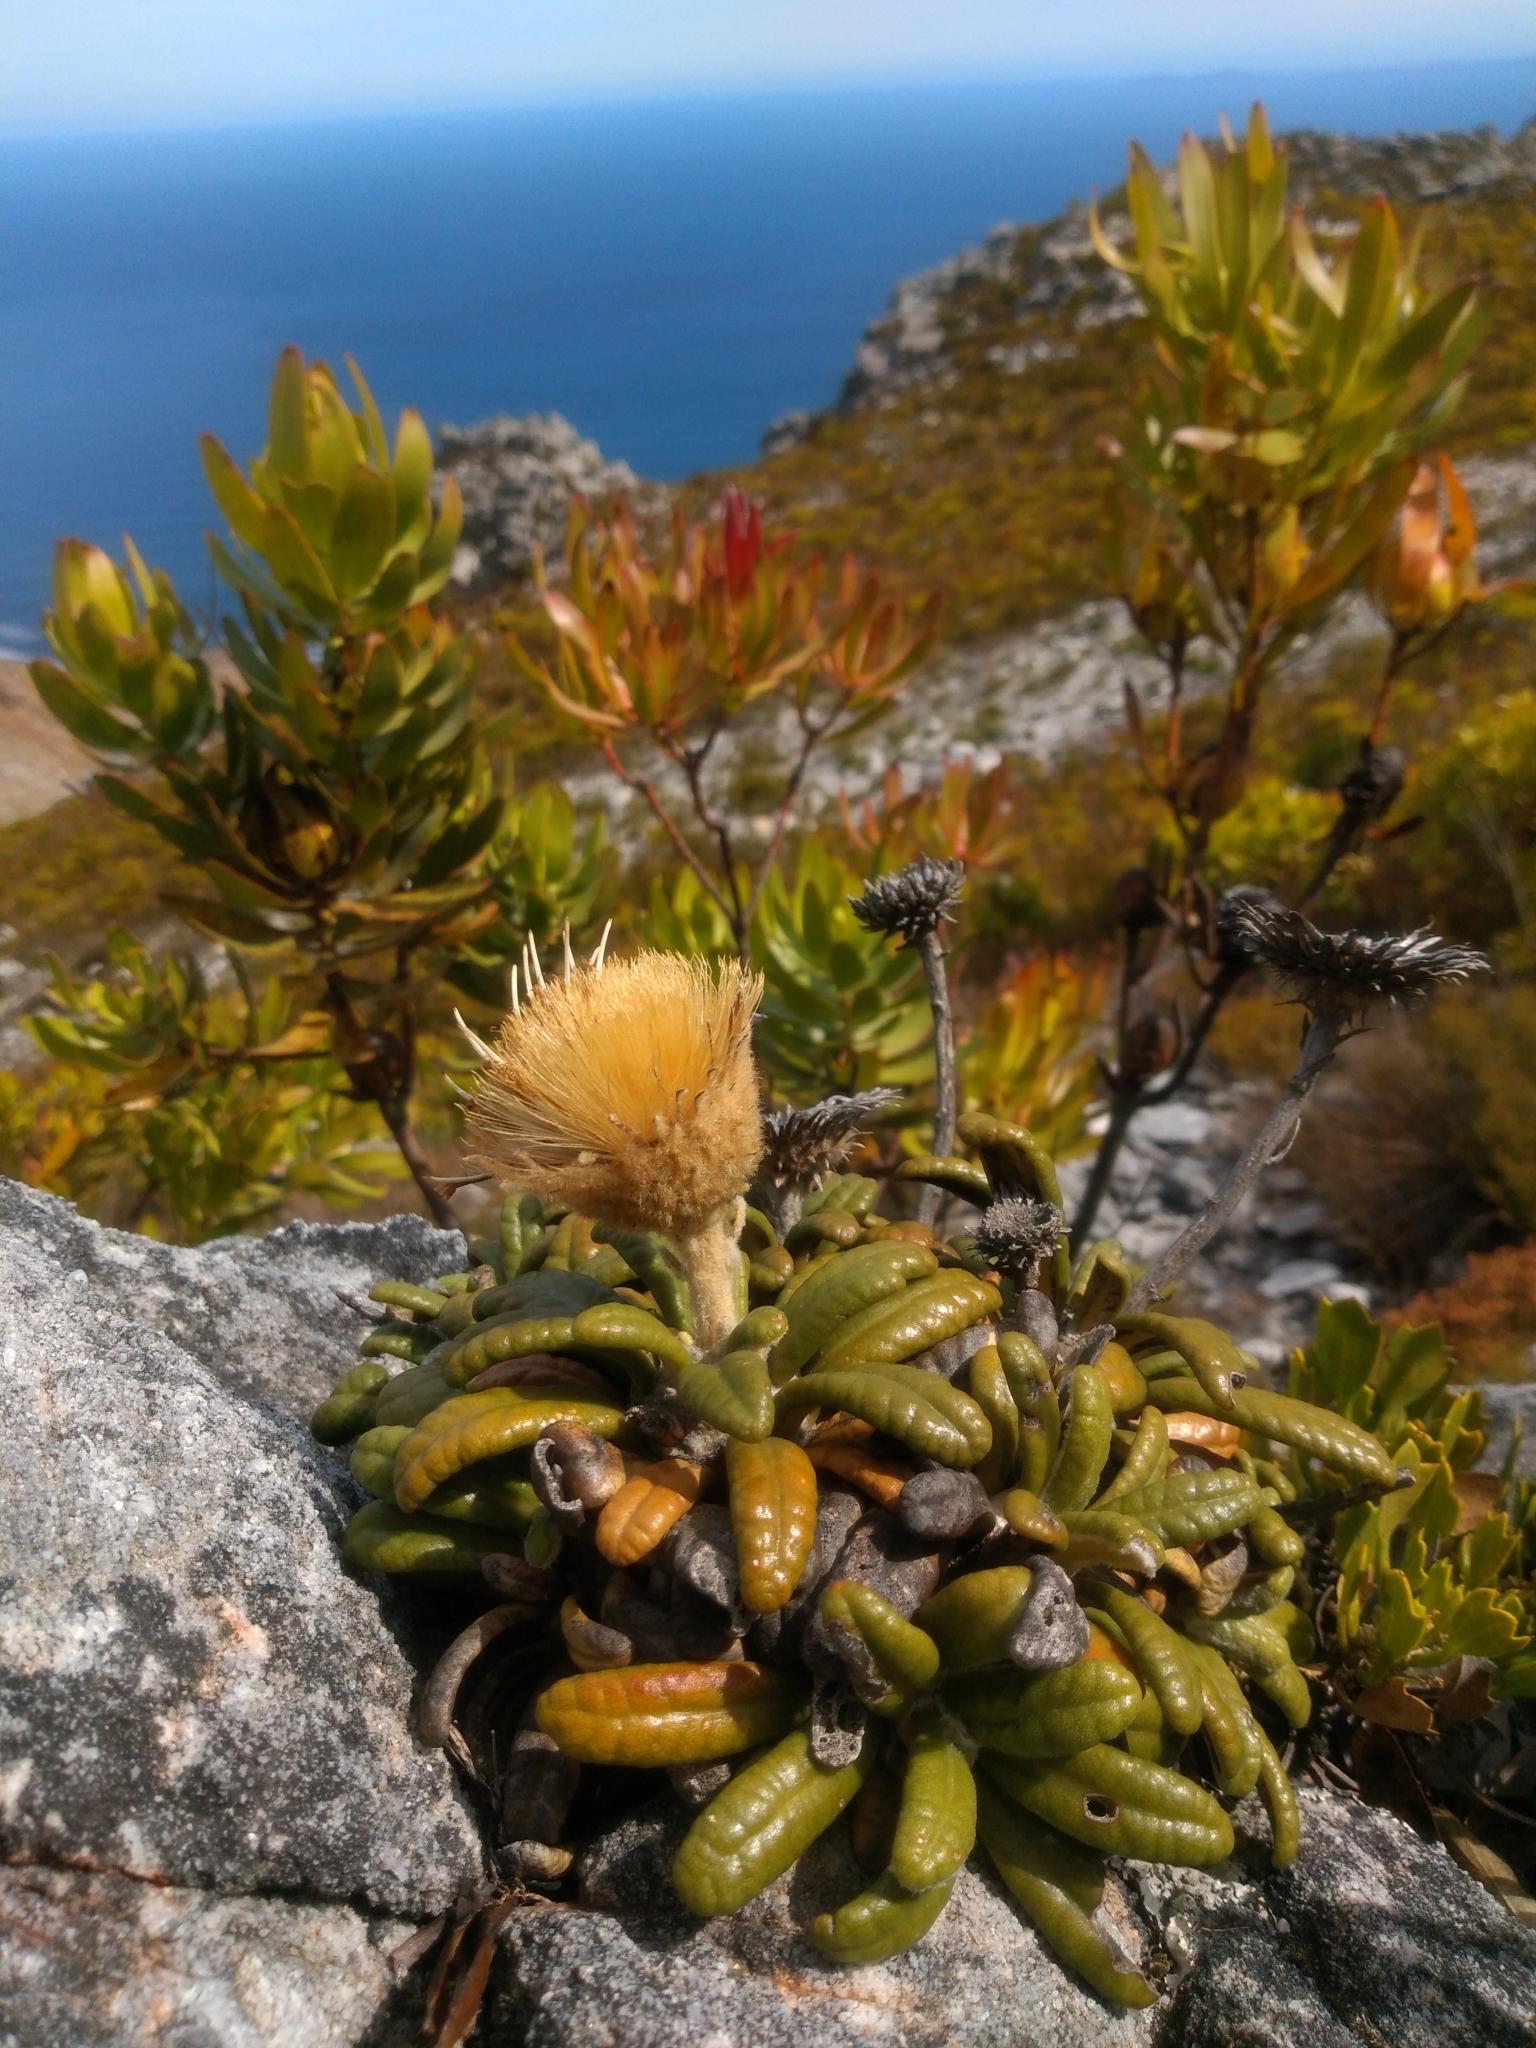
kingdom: Plantae
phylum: Tracheophyta
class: Magnoliopsida
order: Asterales
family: Asteraceae
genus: Oldenburgia
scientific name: Oldenburgia intermedia
